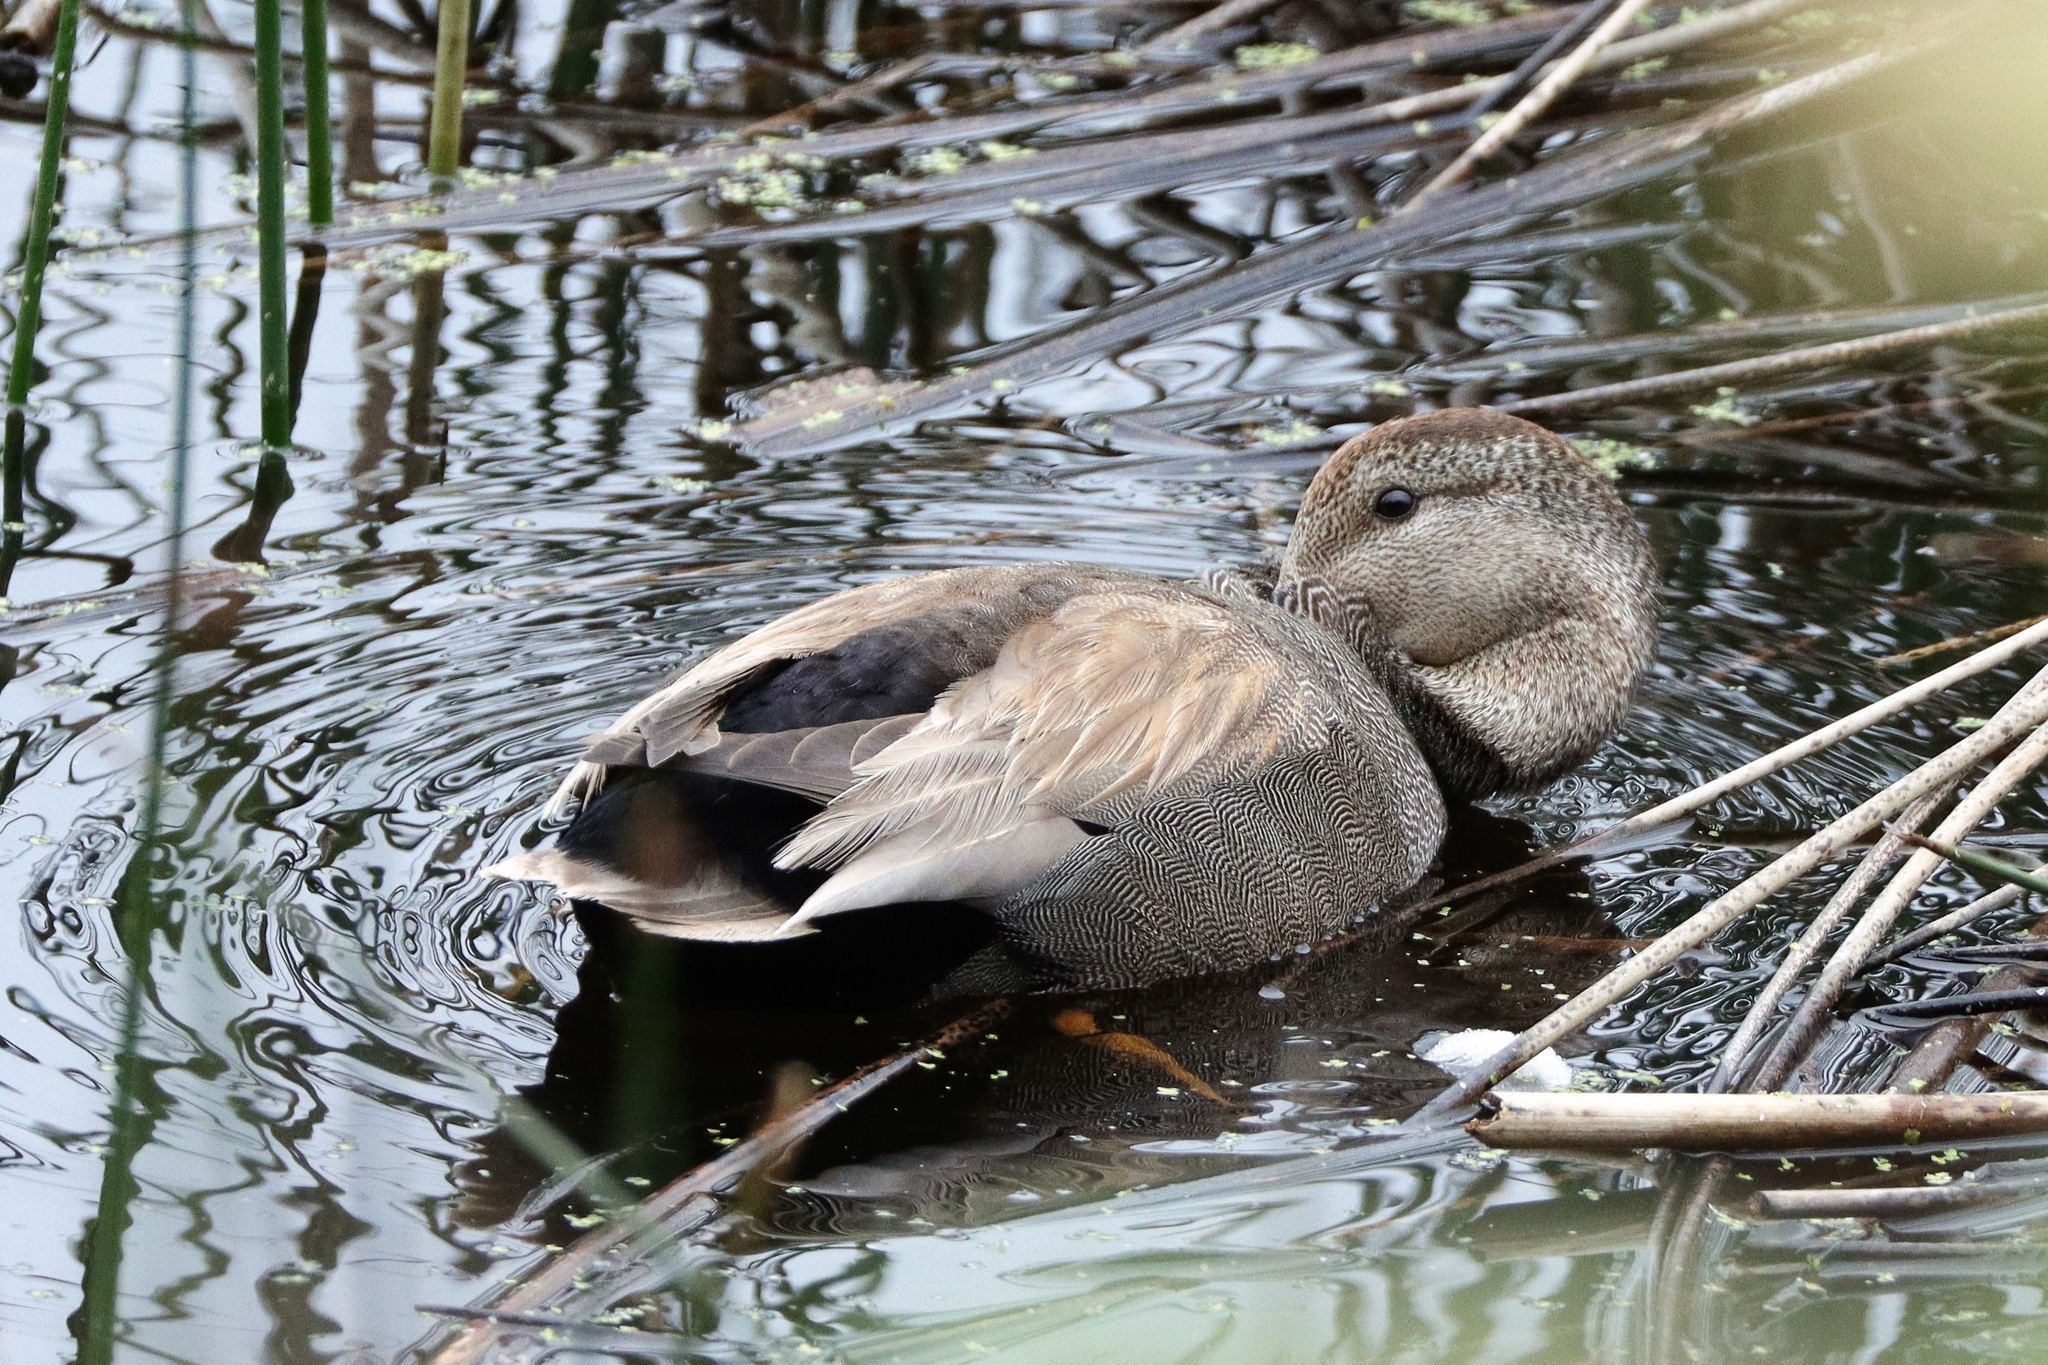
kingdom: Animalia
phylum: Chordata
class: Aves
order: Anseriformes
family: Anatidae
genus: Mareca
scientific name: Mareca strepera
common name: Gadwall
